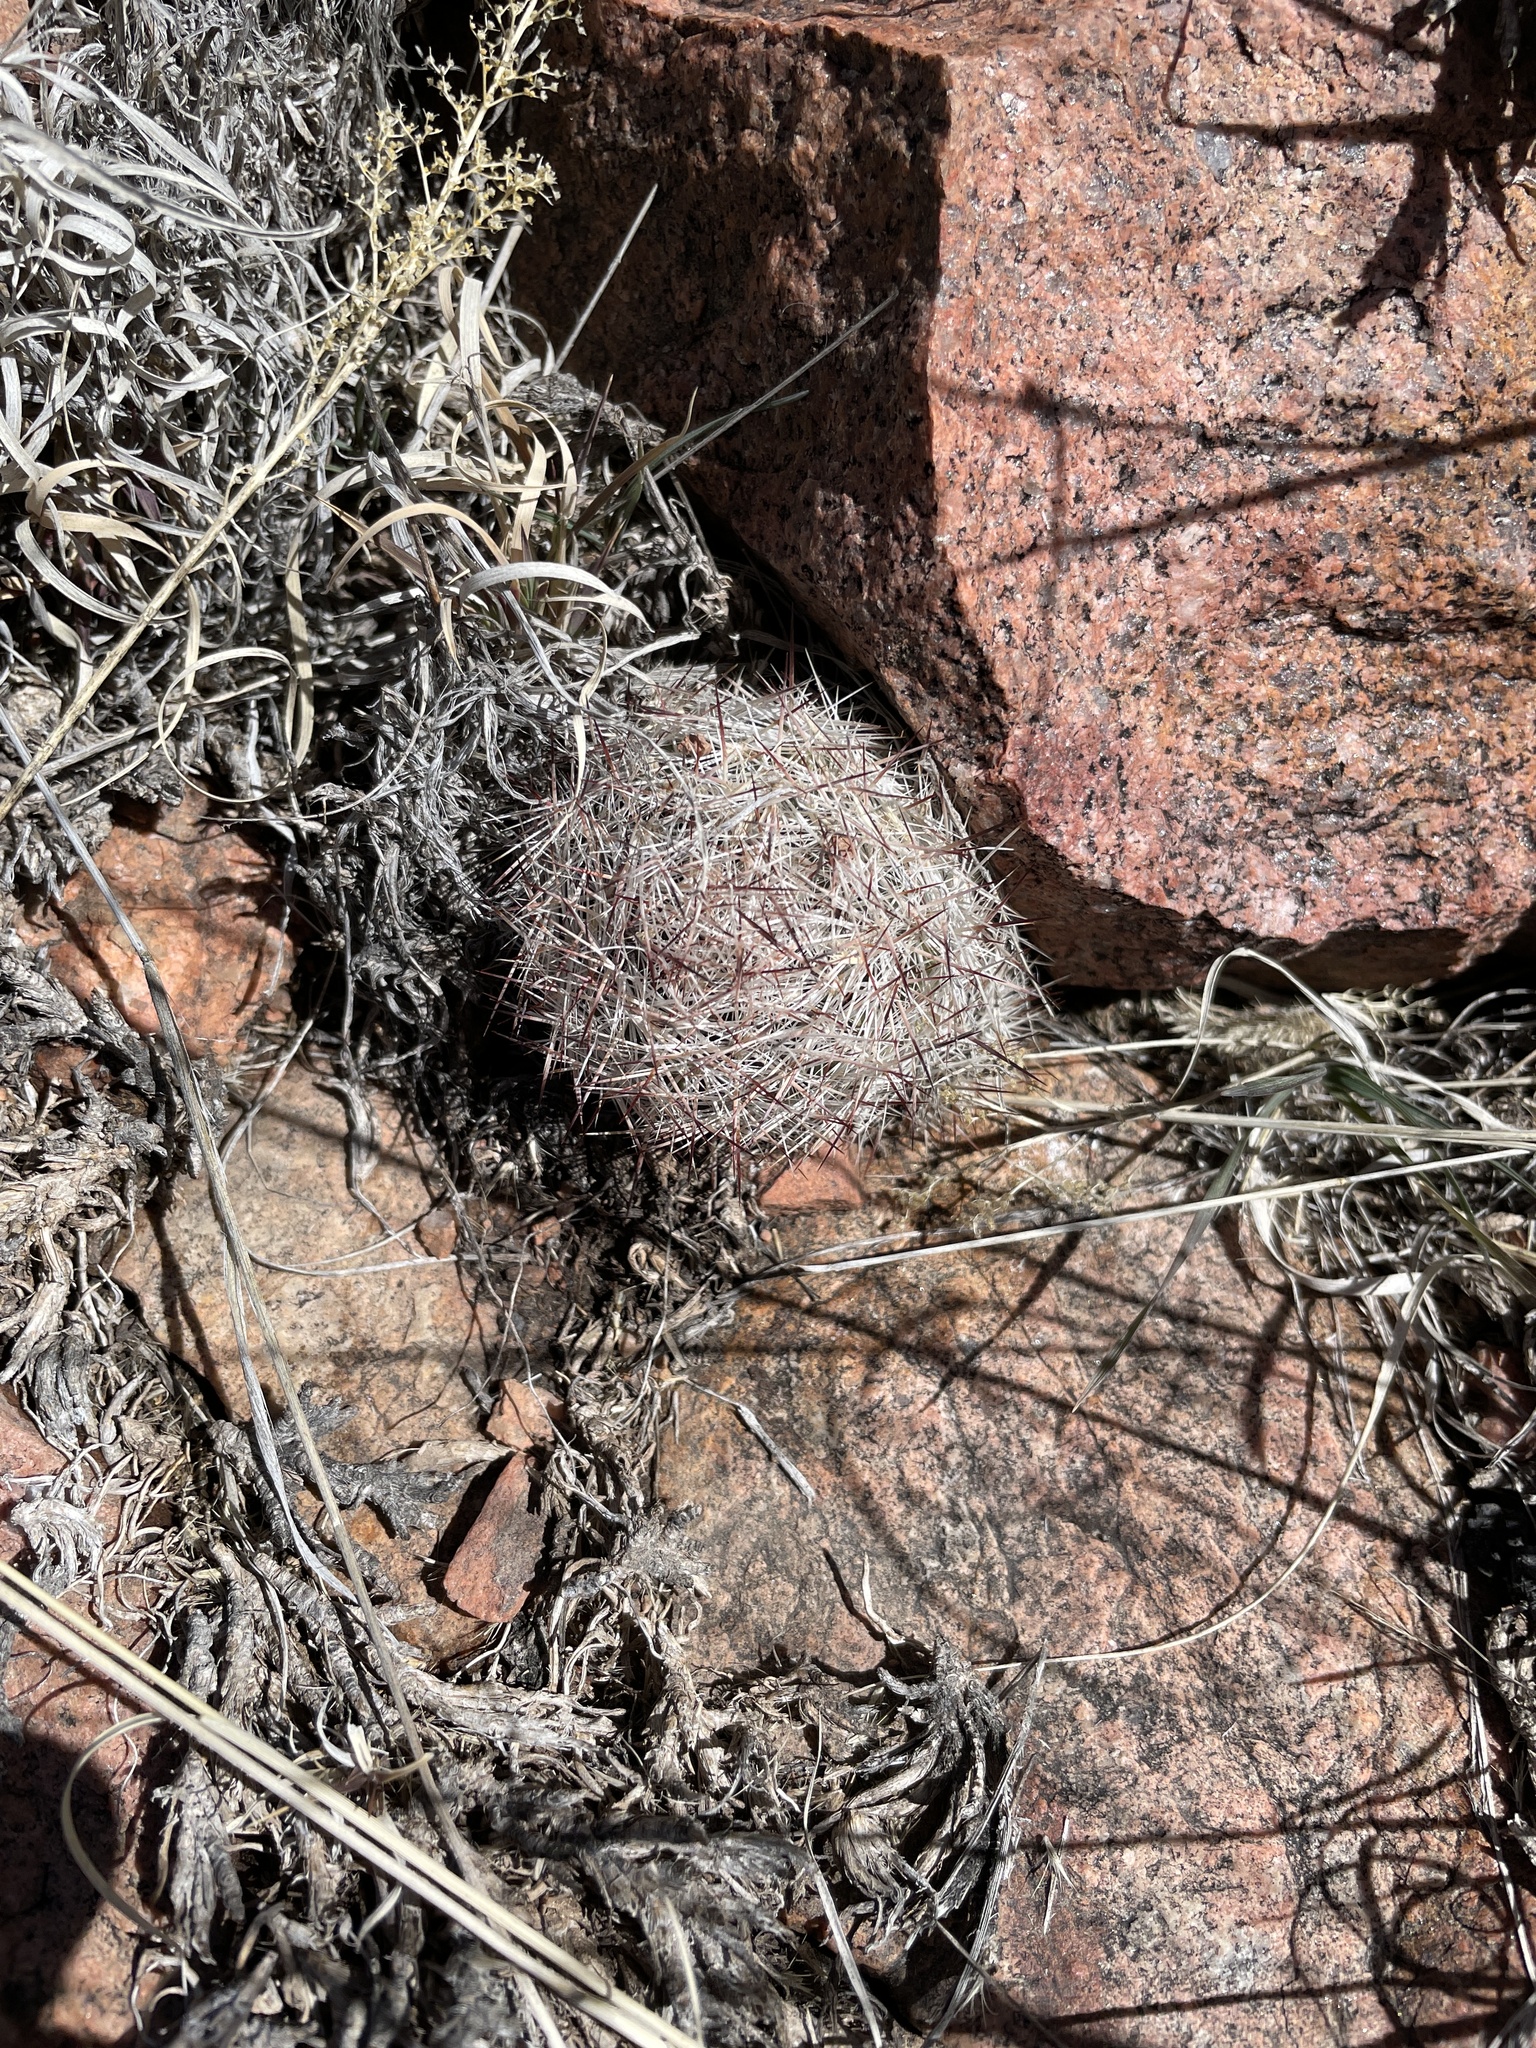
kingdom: Plantae
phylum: Tracheophyta
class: Magnoliopsida
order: Caryophyllales
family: Cactaceae
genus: Pelecyphora
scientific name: Pelecyphora vivipara
